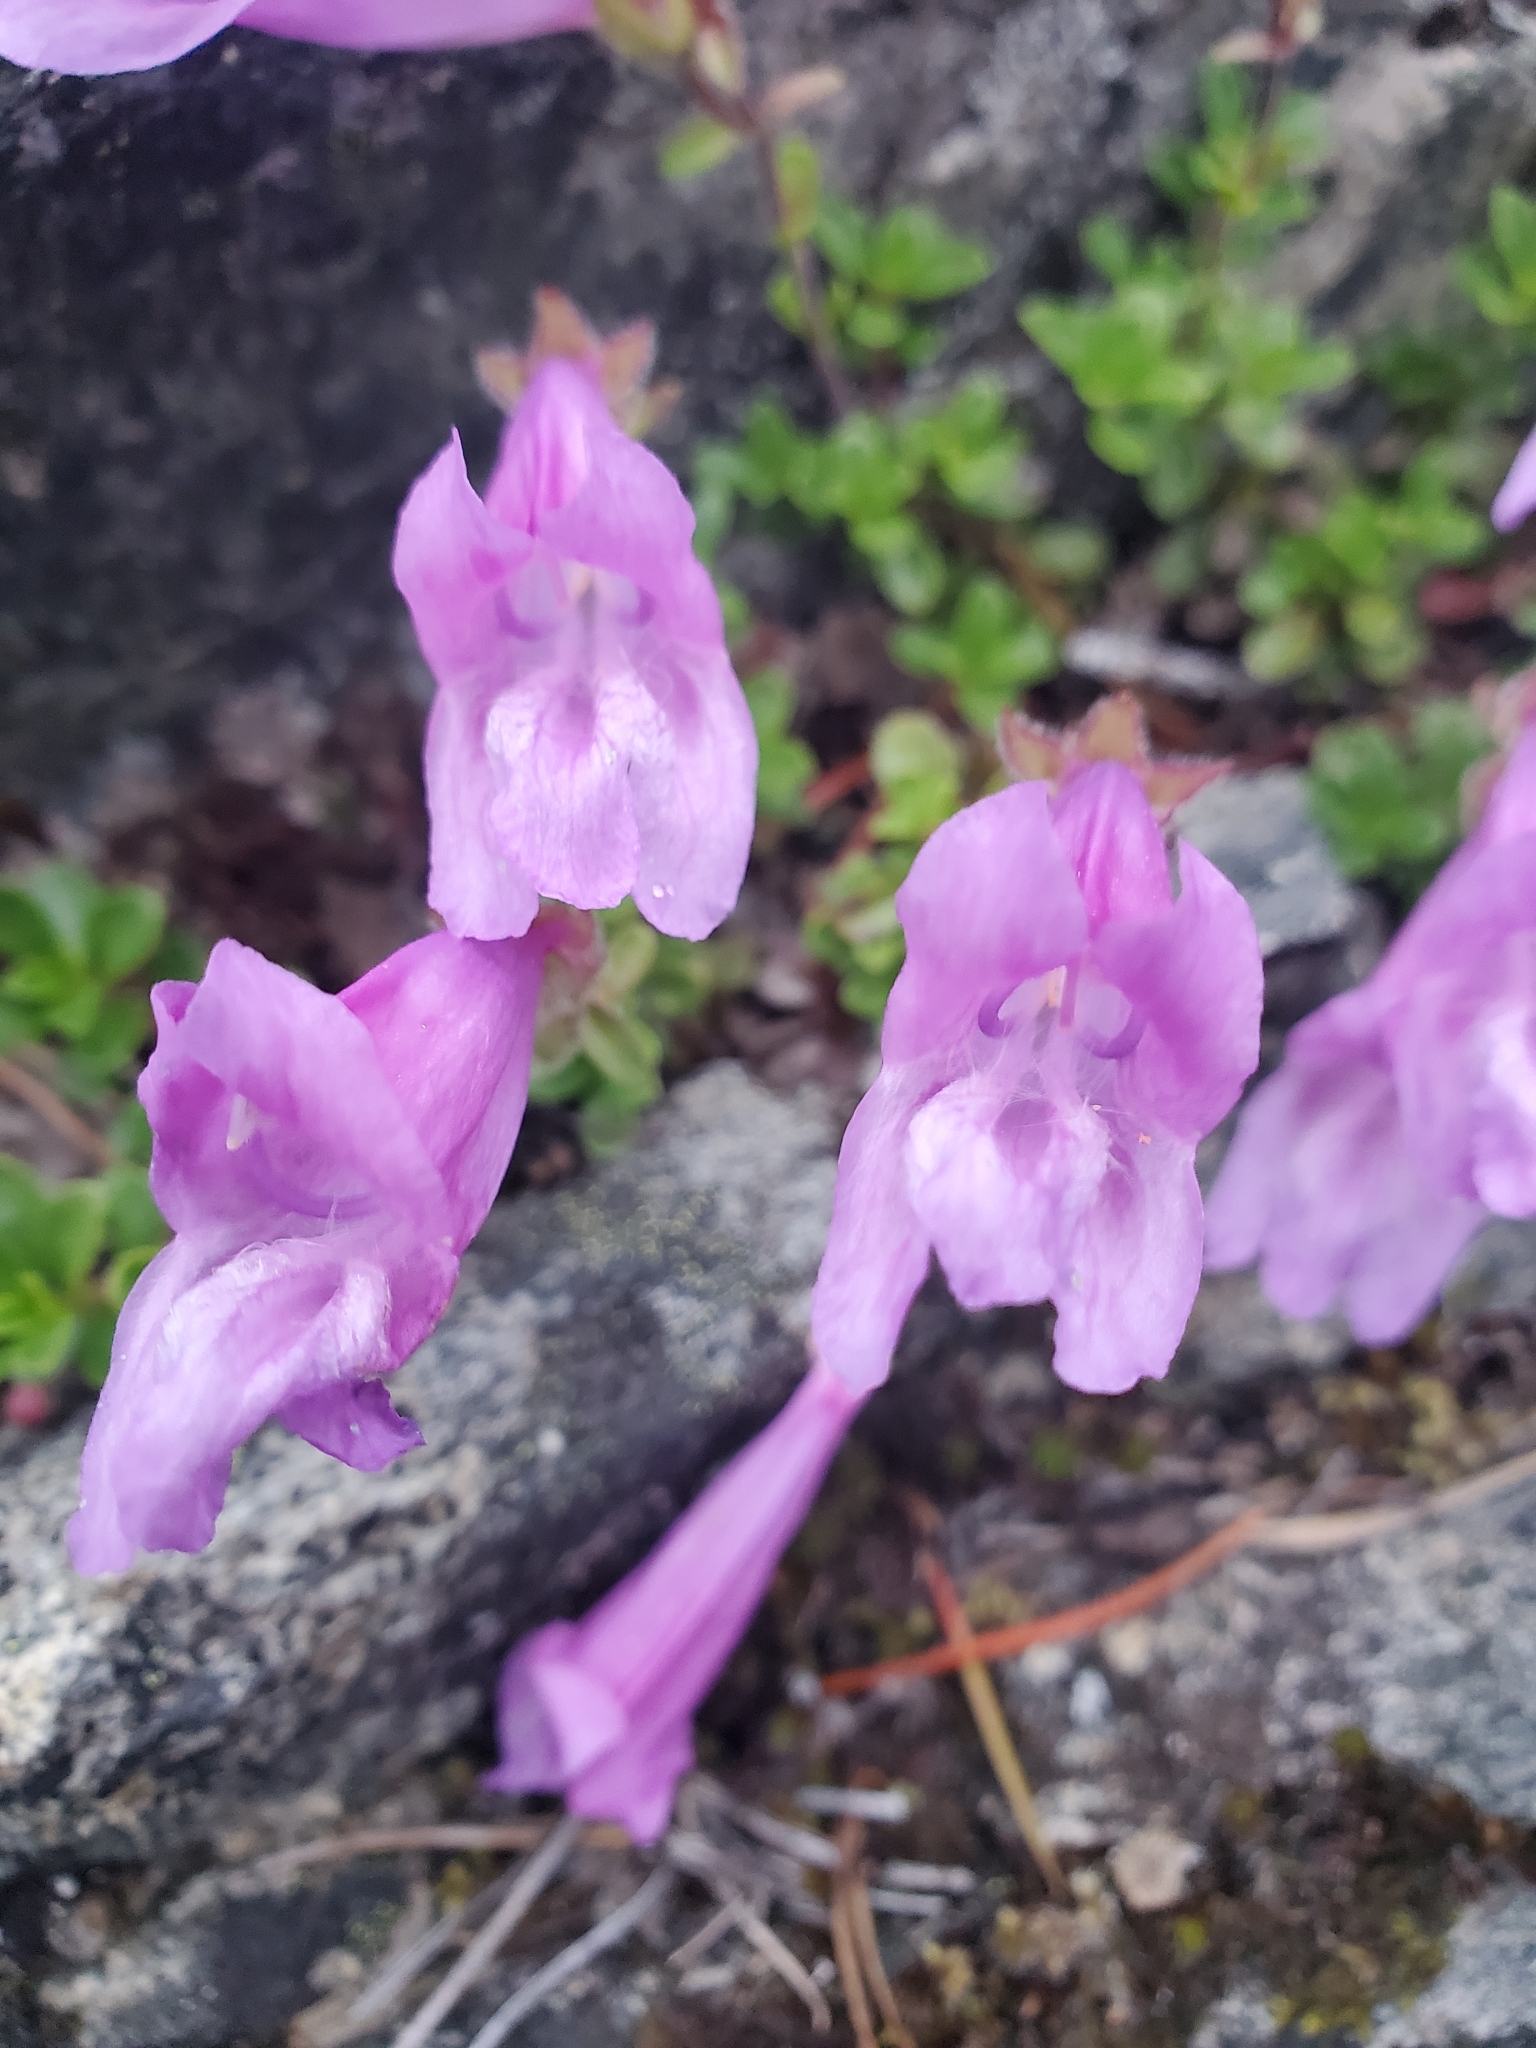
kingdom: Plantae
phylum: Tracheophyta
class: Magnoliopsida
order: Lamiales
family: Plantaginaceae
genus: Penstemon
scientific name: Penstemon davidsonii
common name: Davidson's penstemon
